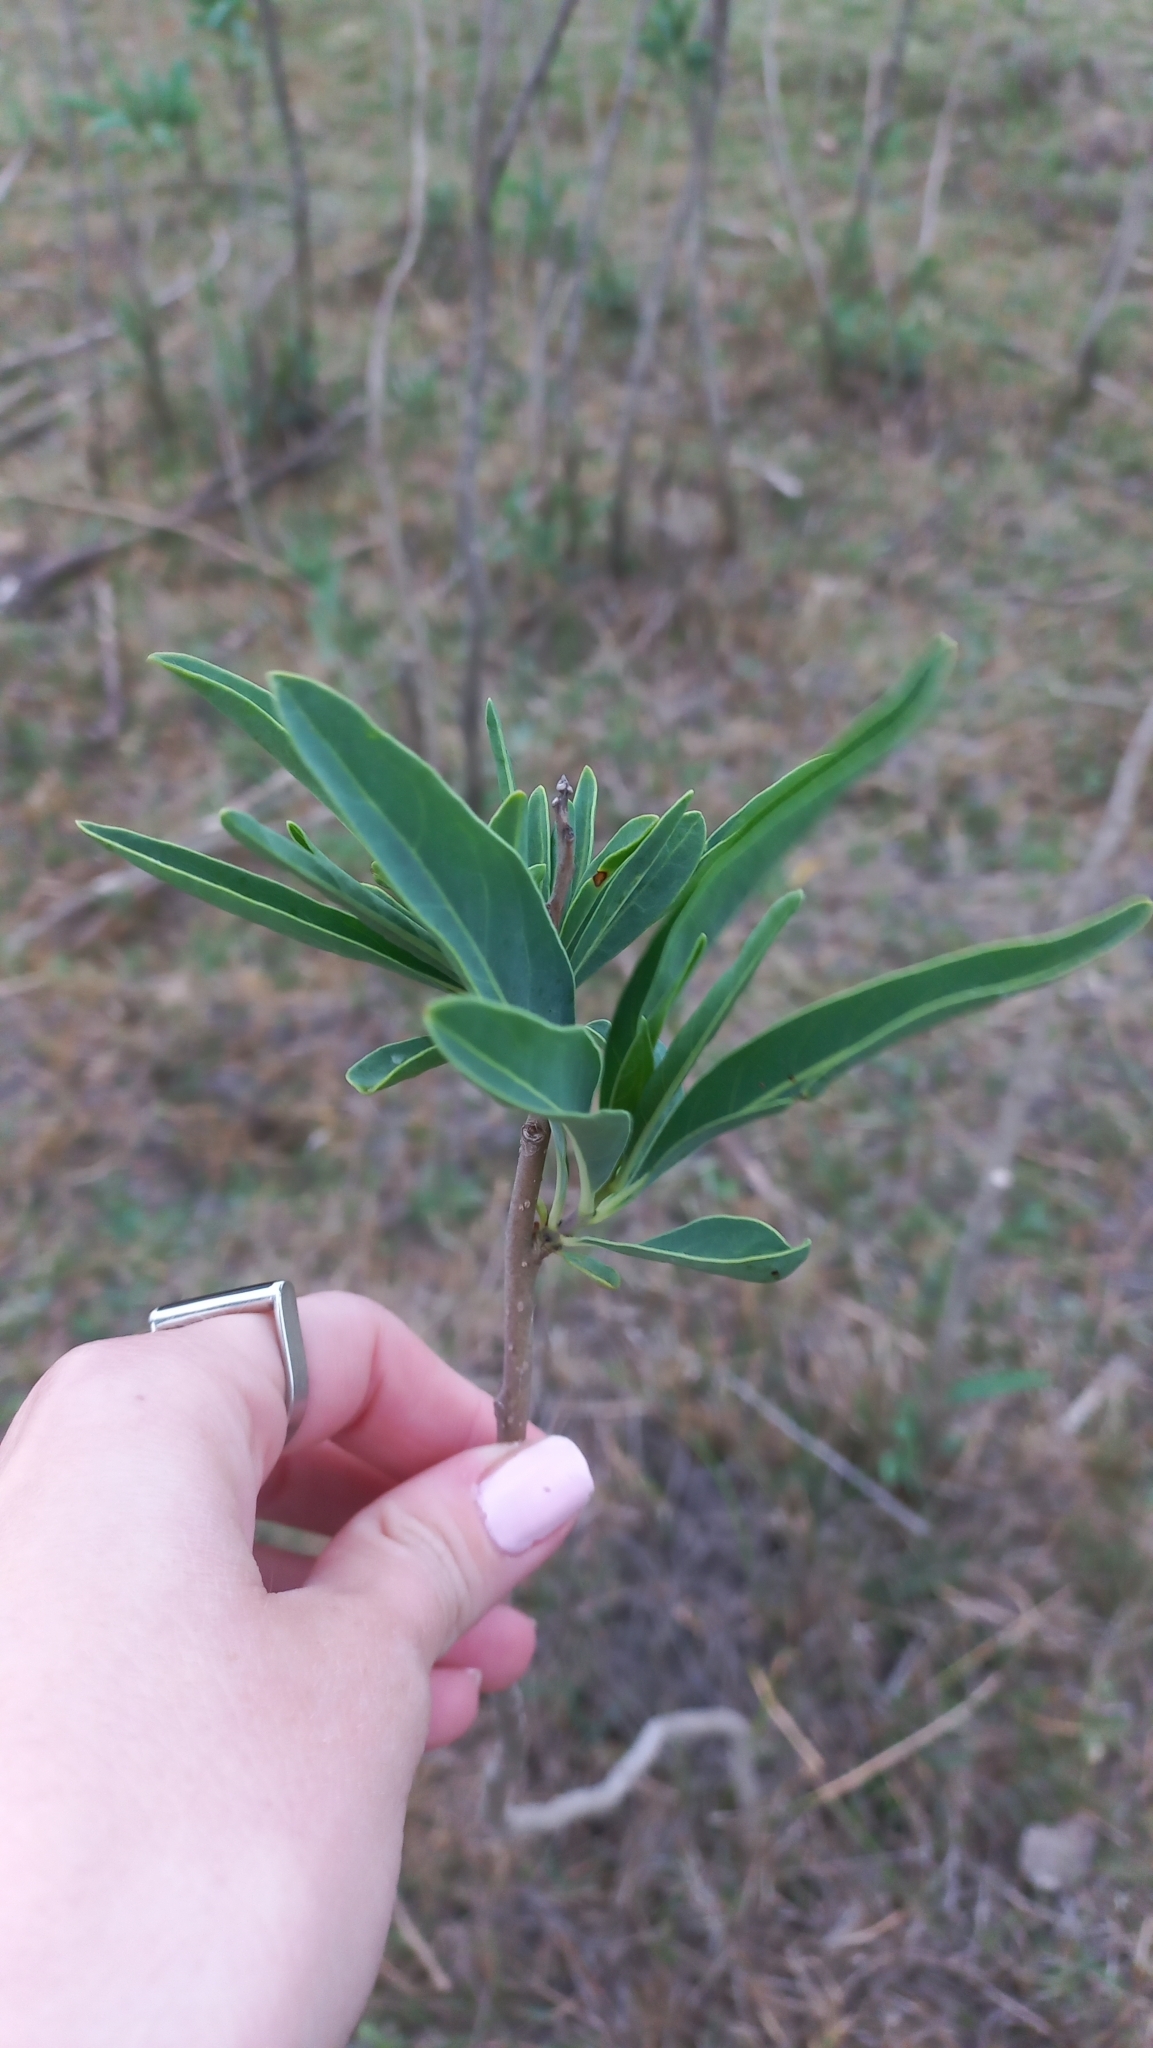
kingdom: Plantae
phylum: Tracheophyta
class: Magnoliopsida
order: Solanales
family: Solanaceae
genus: Solanum
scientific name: Solanum glaucophyllum
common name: Waxyleaf nightshade
